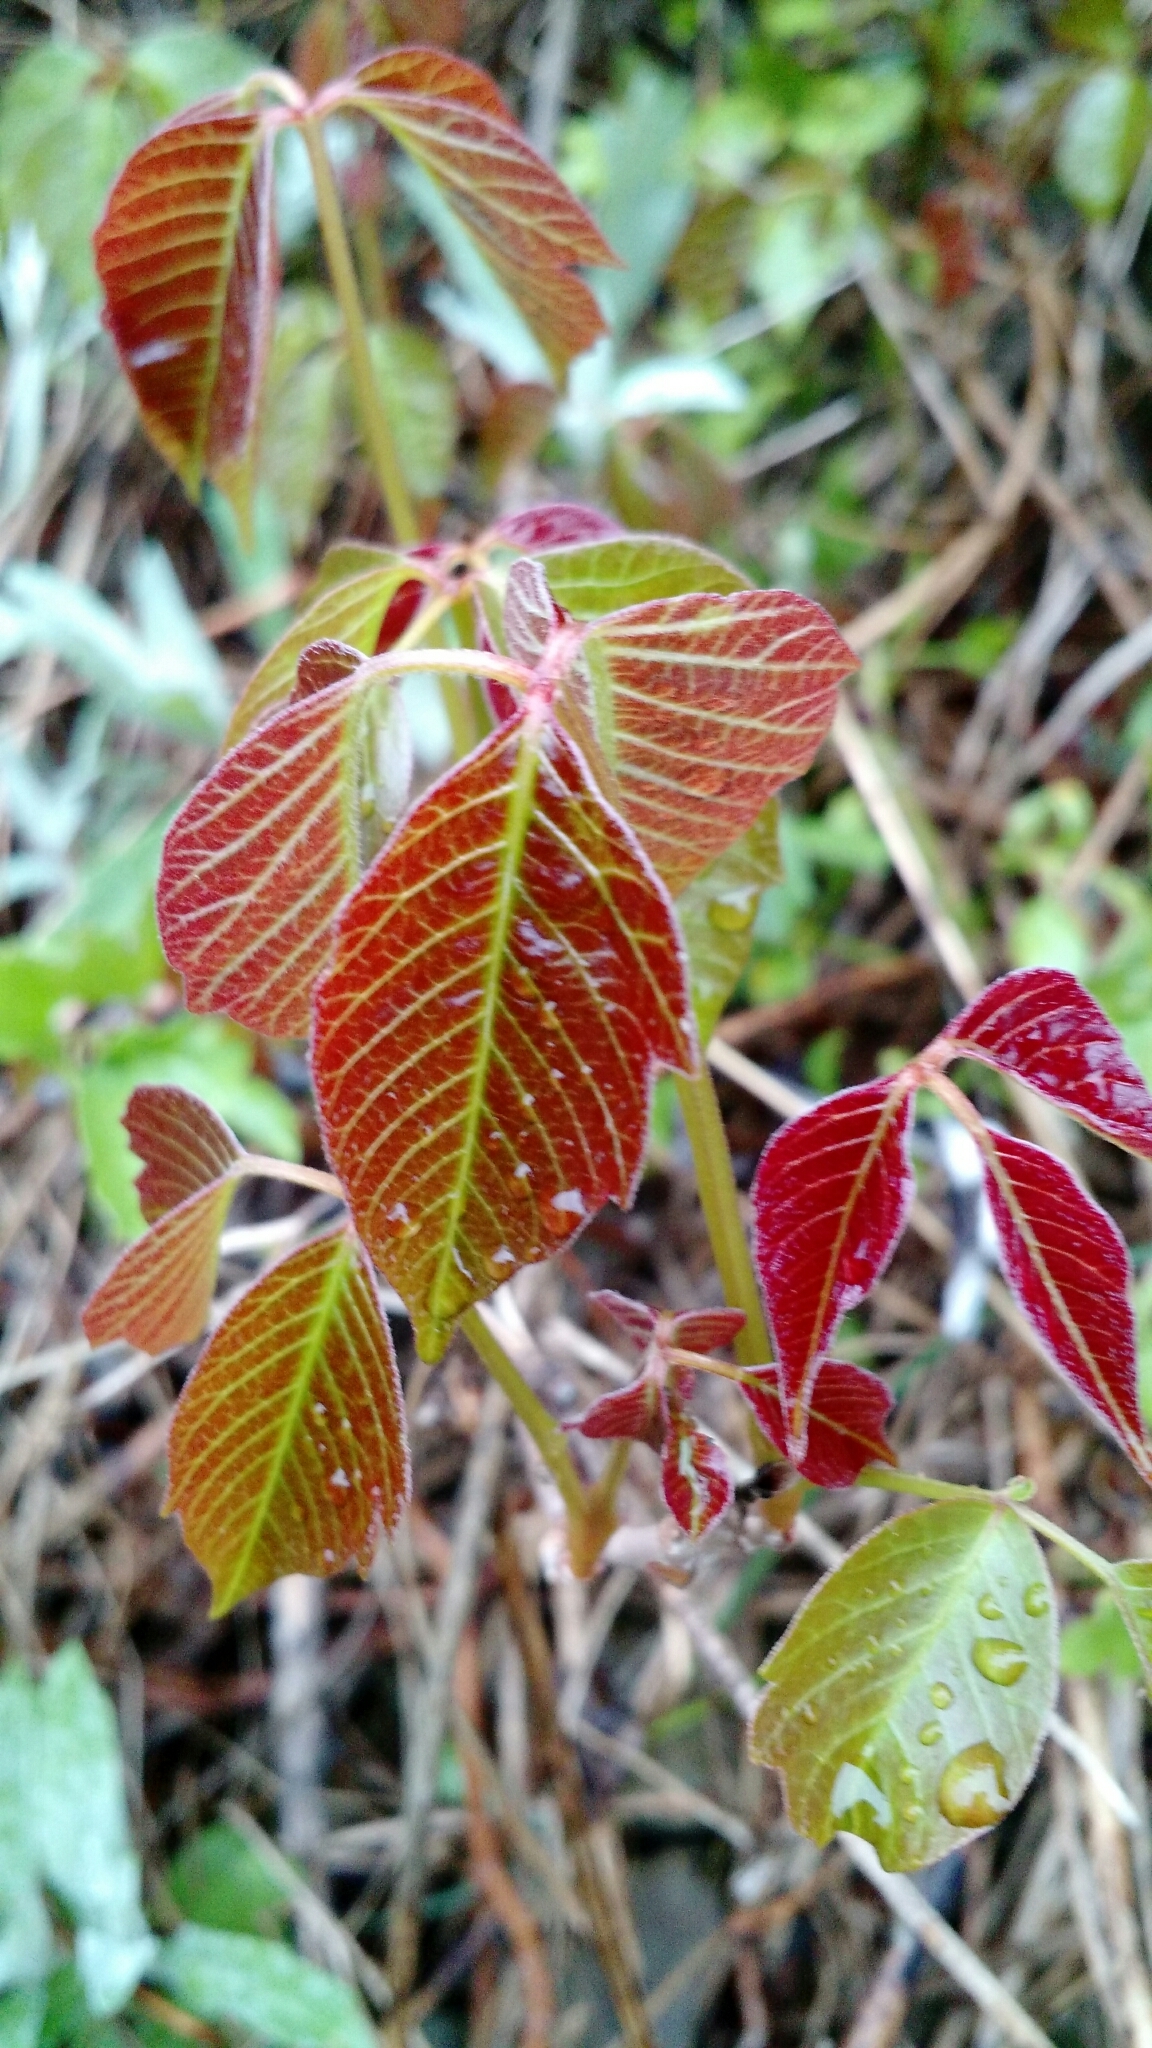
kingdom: Plantae
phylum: Tracheophyta
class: Magnoliopsida
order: Sapindales
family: Anacardiaceae
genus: Toxicodendron
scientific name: Toxicodendron rydbergii
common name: Rydberg's poison-ivy
